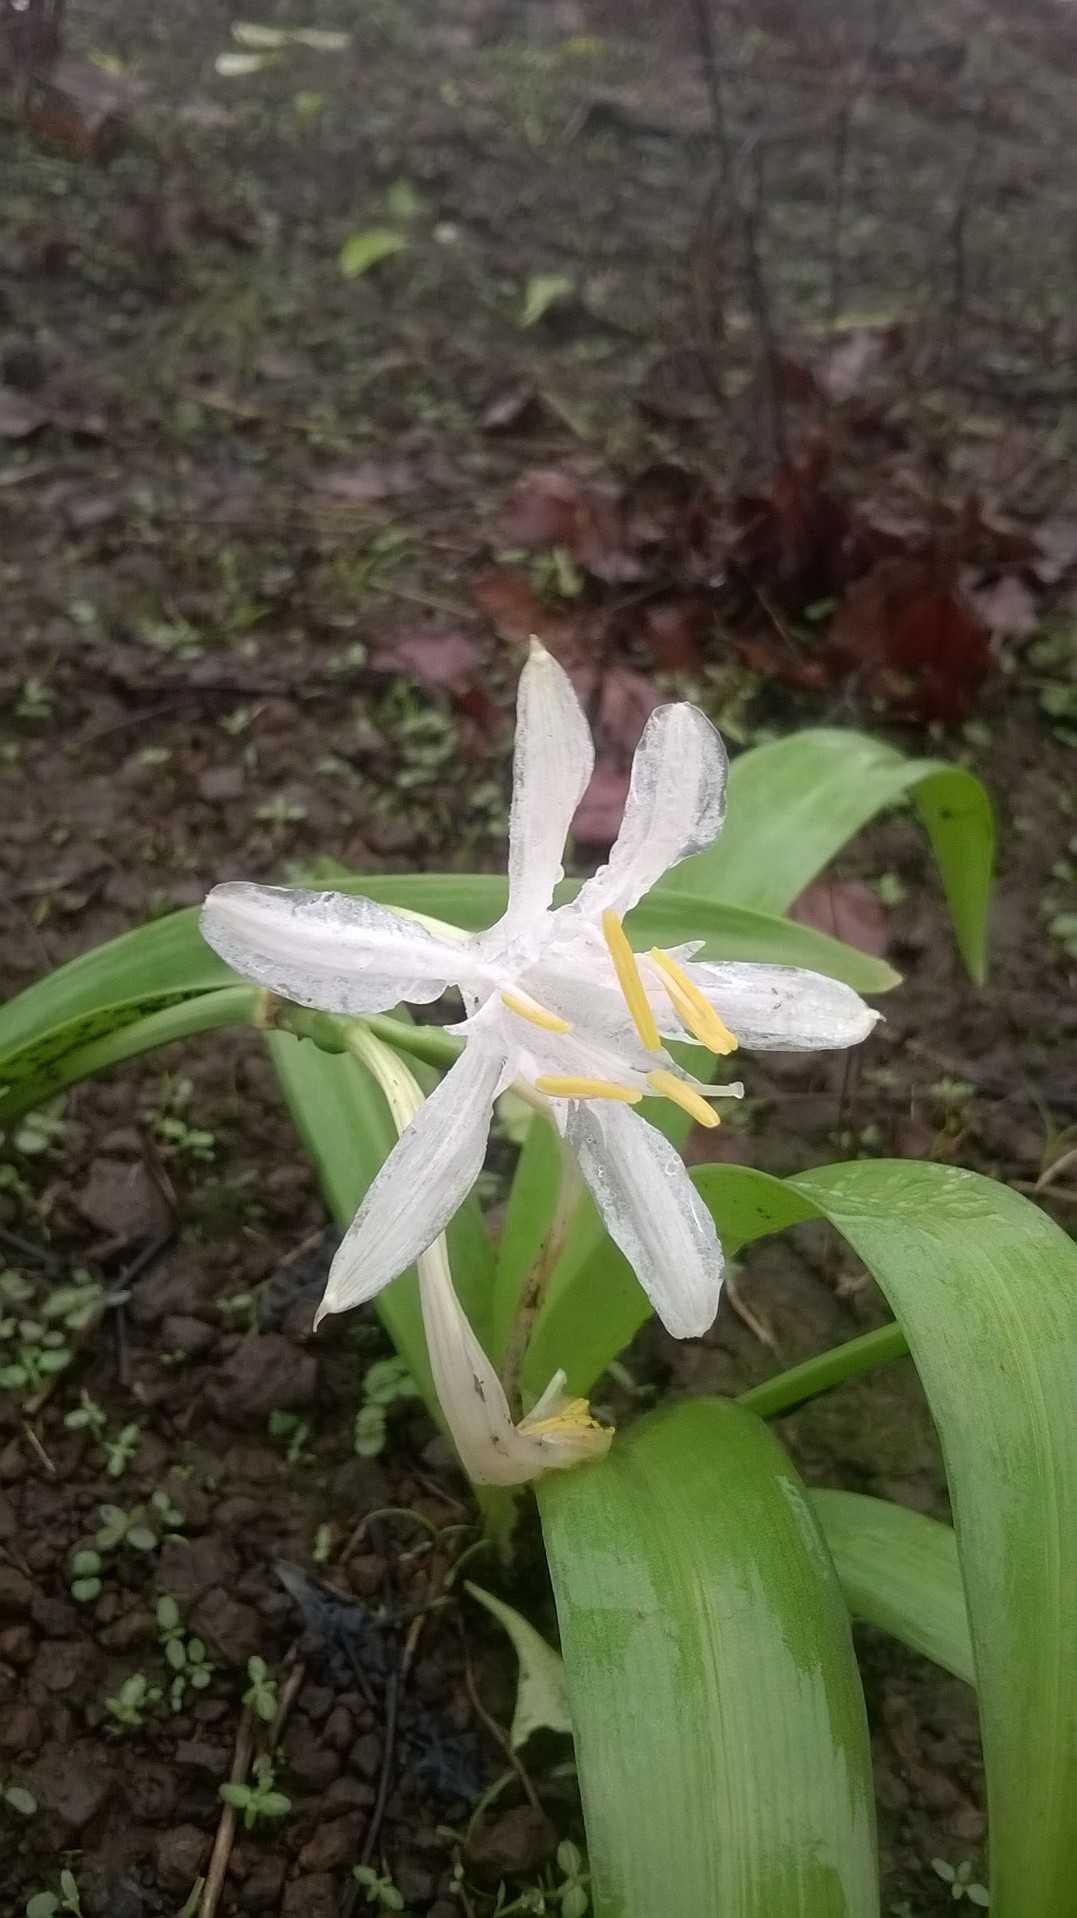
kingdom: Plantae
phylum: Tracheophyta
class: Liliopsida
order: Asparagales
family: Amaryllidaceae
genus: Pancratium
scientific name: Pancratium parvum
